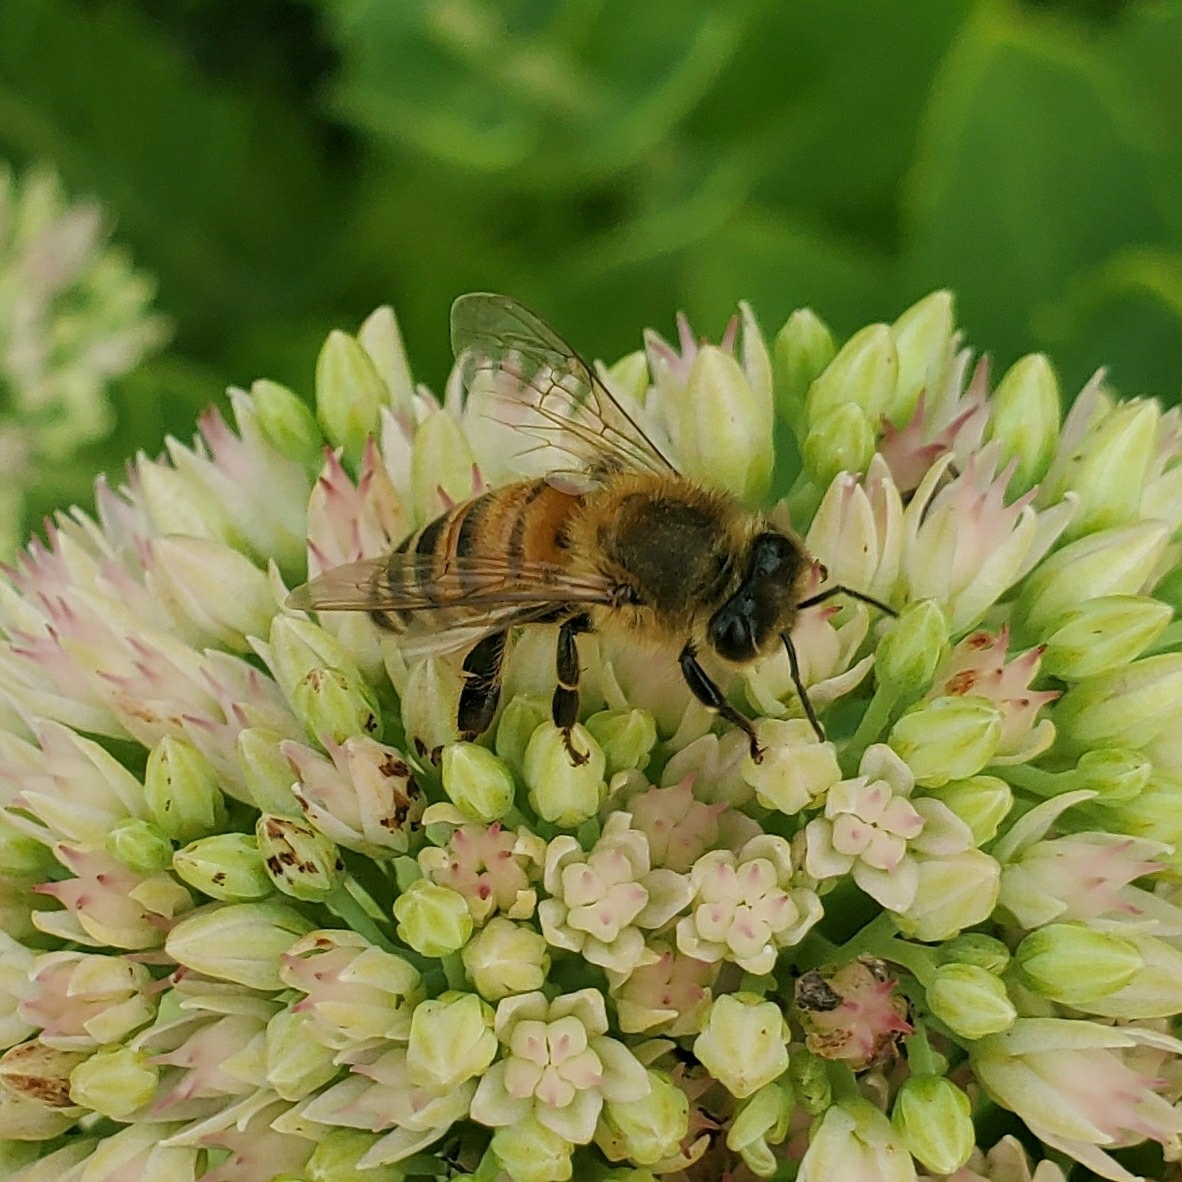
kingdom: Animalia
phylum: Arthropoda
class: Insecta
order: Hymenoptera
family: Apidae
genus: Apis
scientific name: Apis mellifera
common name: Honey bee
